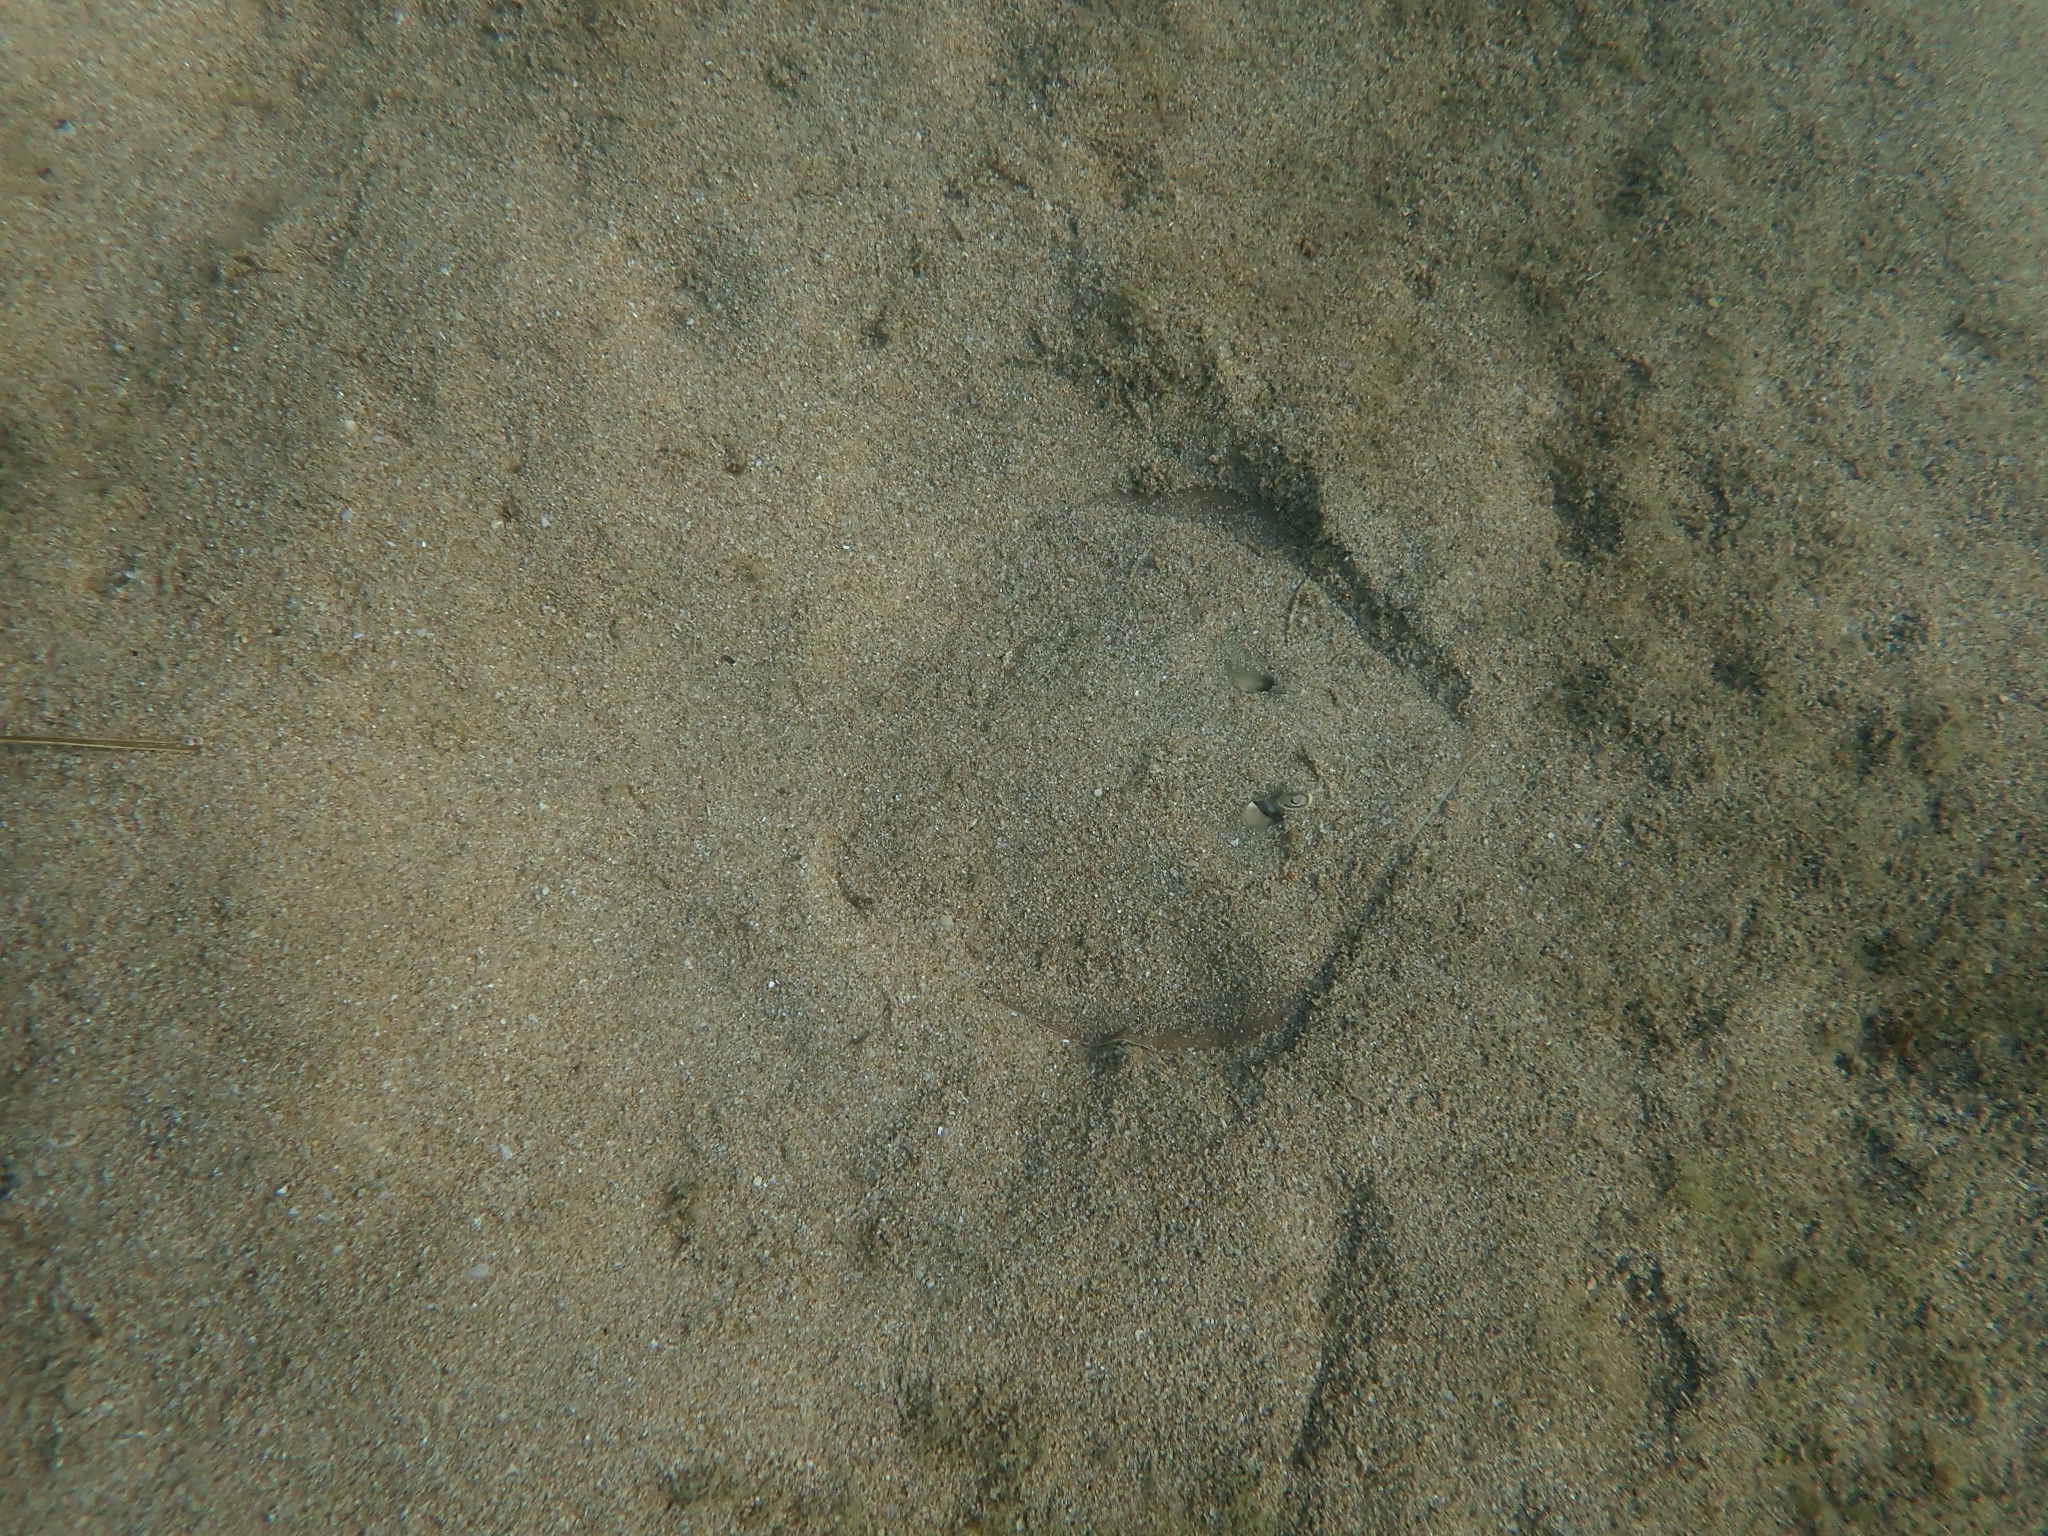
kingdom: Animalia
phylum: Chordata
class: Elasmobranchii
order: Myliobatiformes
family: Dasyatidae
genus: Brevitrygon
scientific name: Brevitrygon heterura
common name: Dwarf whipray
